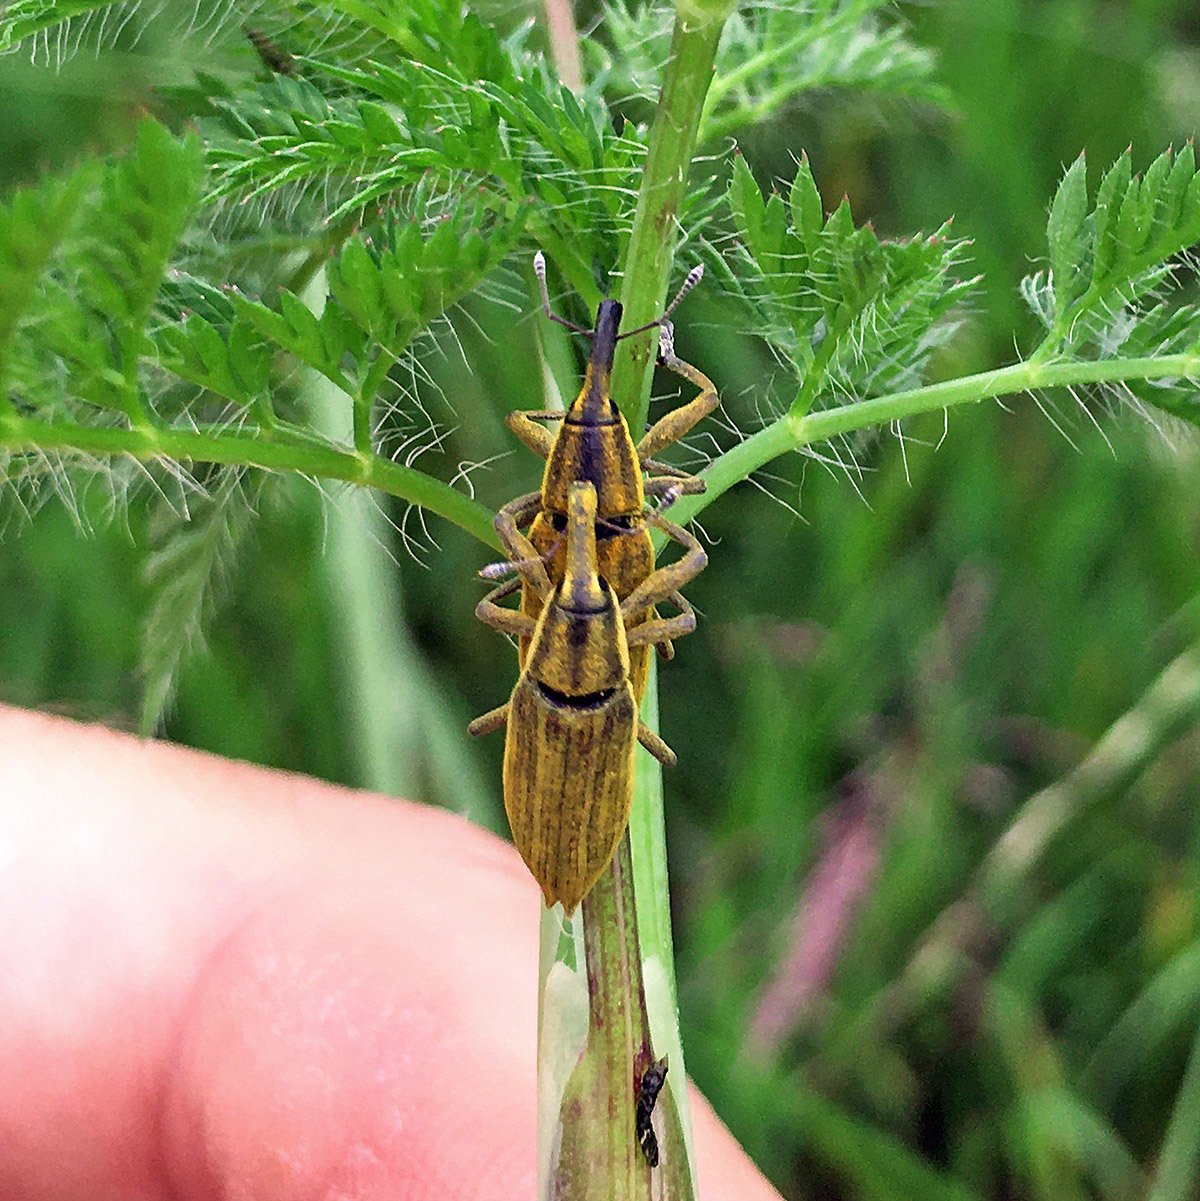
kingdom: Animalia
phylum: Arthropoda
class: Insecta
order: Coleoptera
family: Curculionidae
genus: Lixus
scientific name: Lixus iridis
